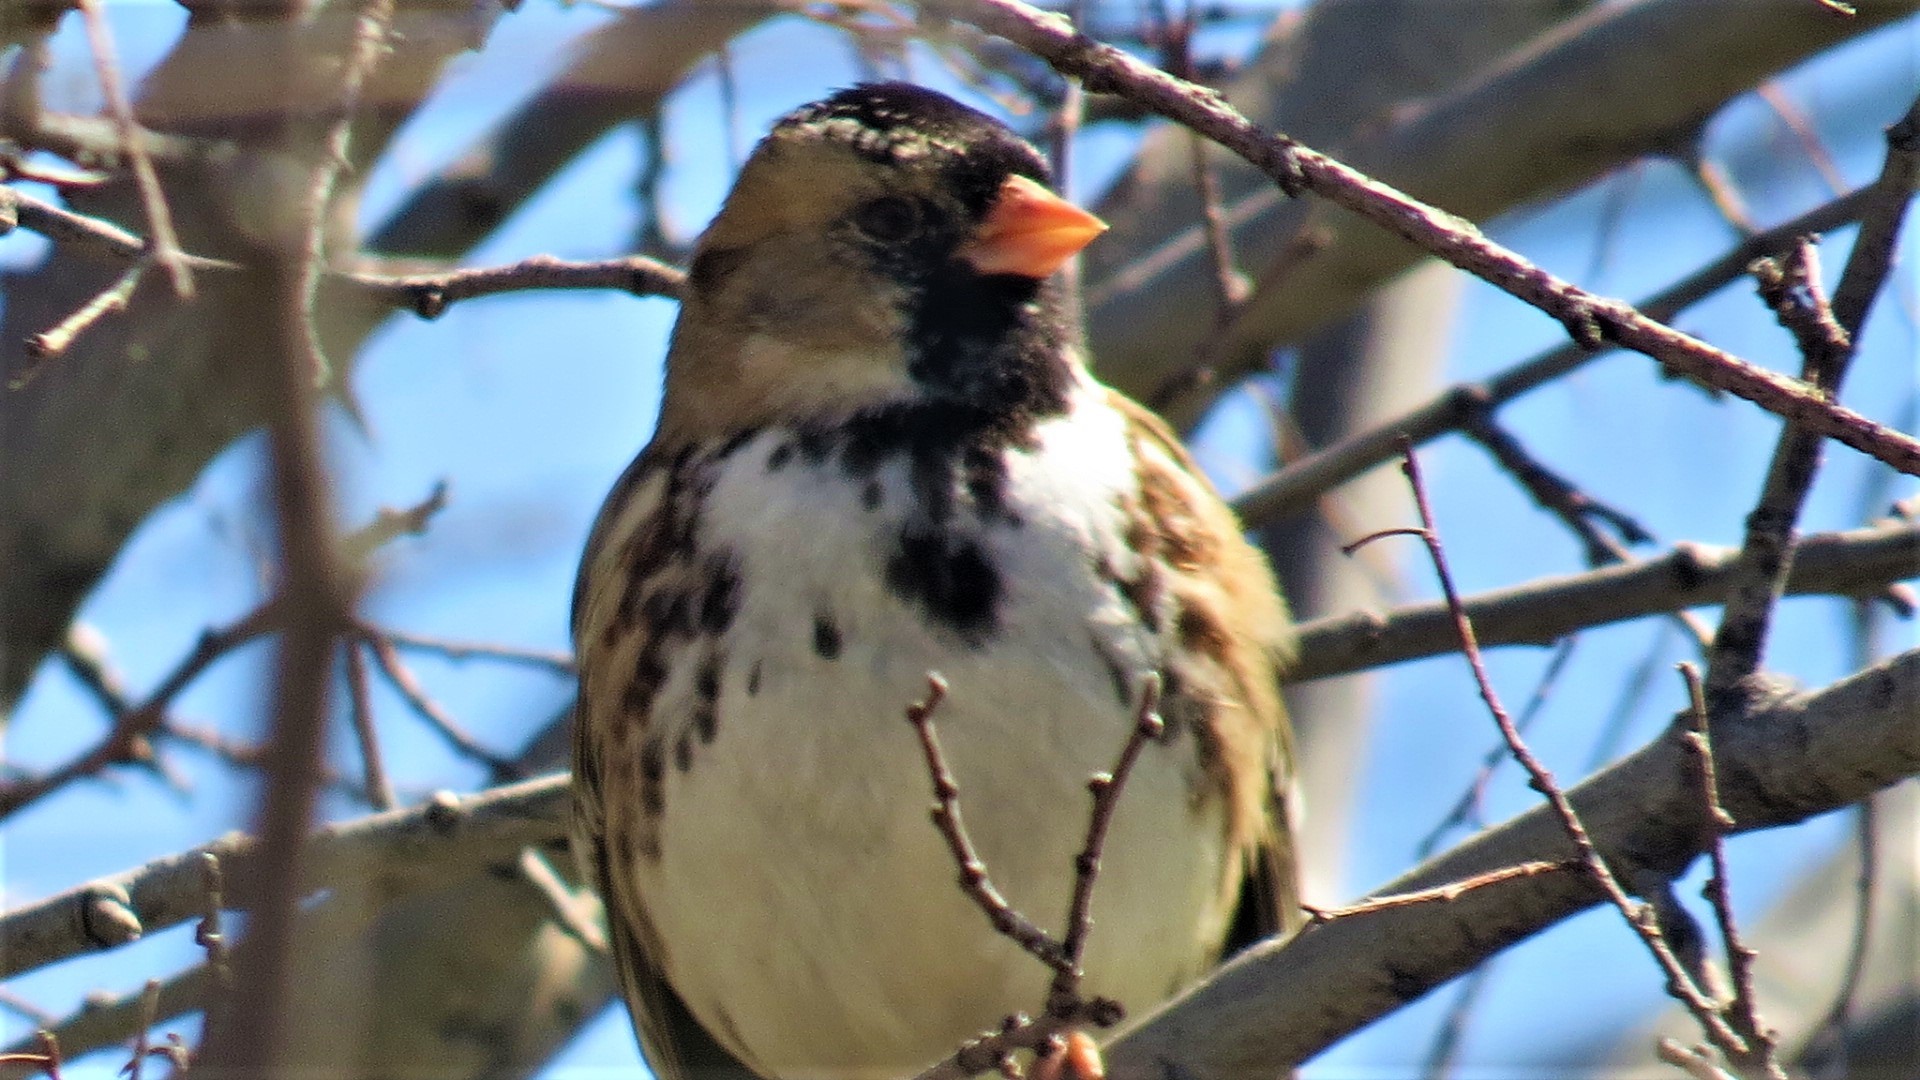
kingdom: Animalia
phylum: Chordata
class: Aves
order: Passeriformes
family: Passerellidae
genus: Zonotrichia
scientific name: Zonotrichia querula
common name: Harris's sparrow
